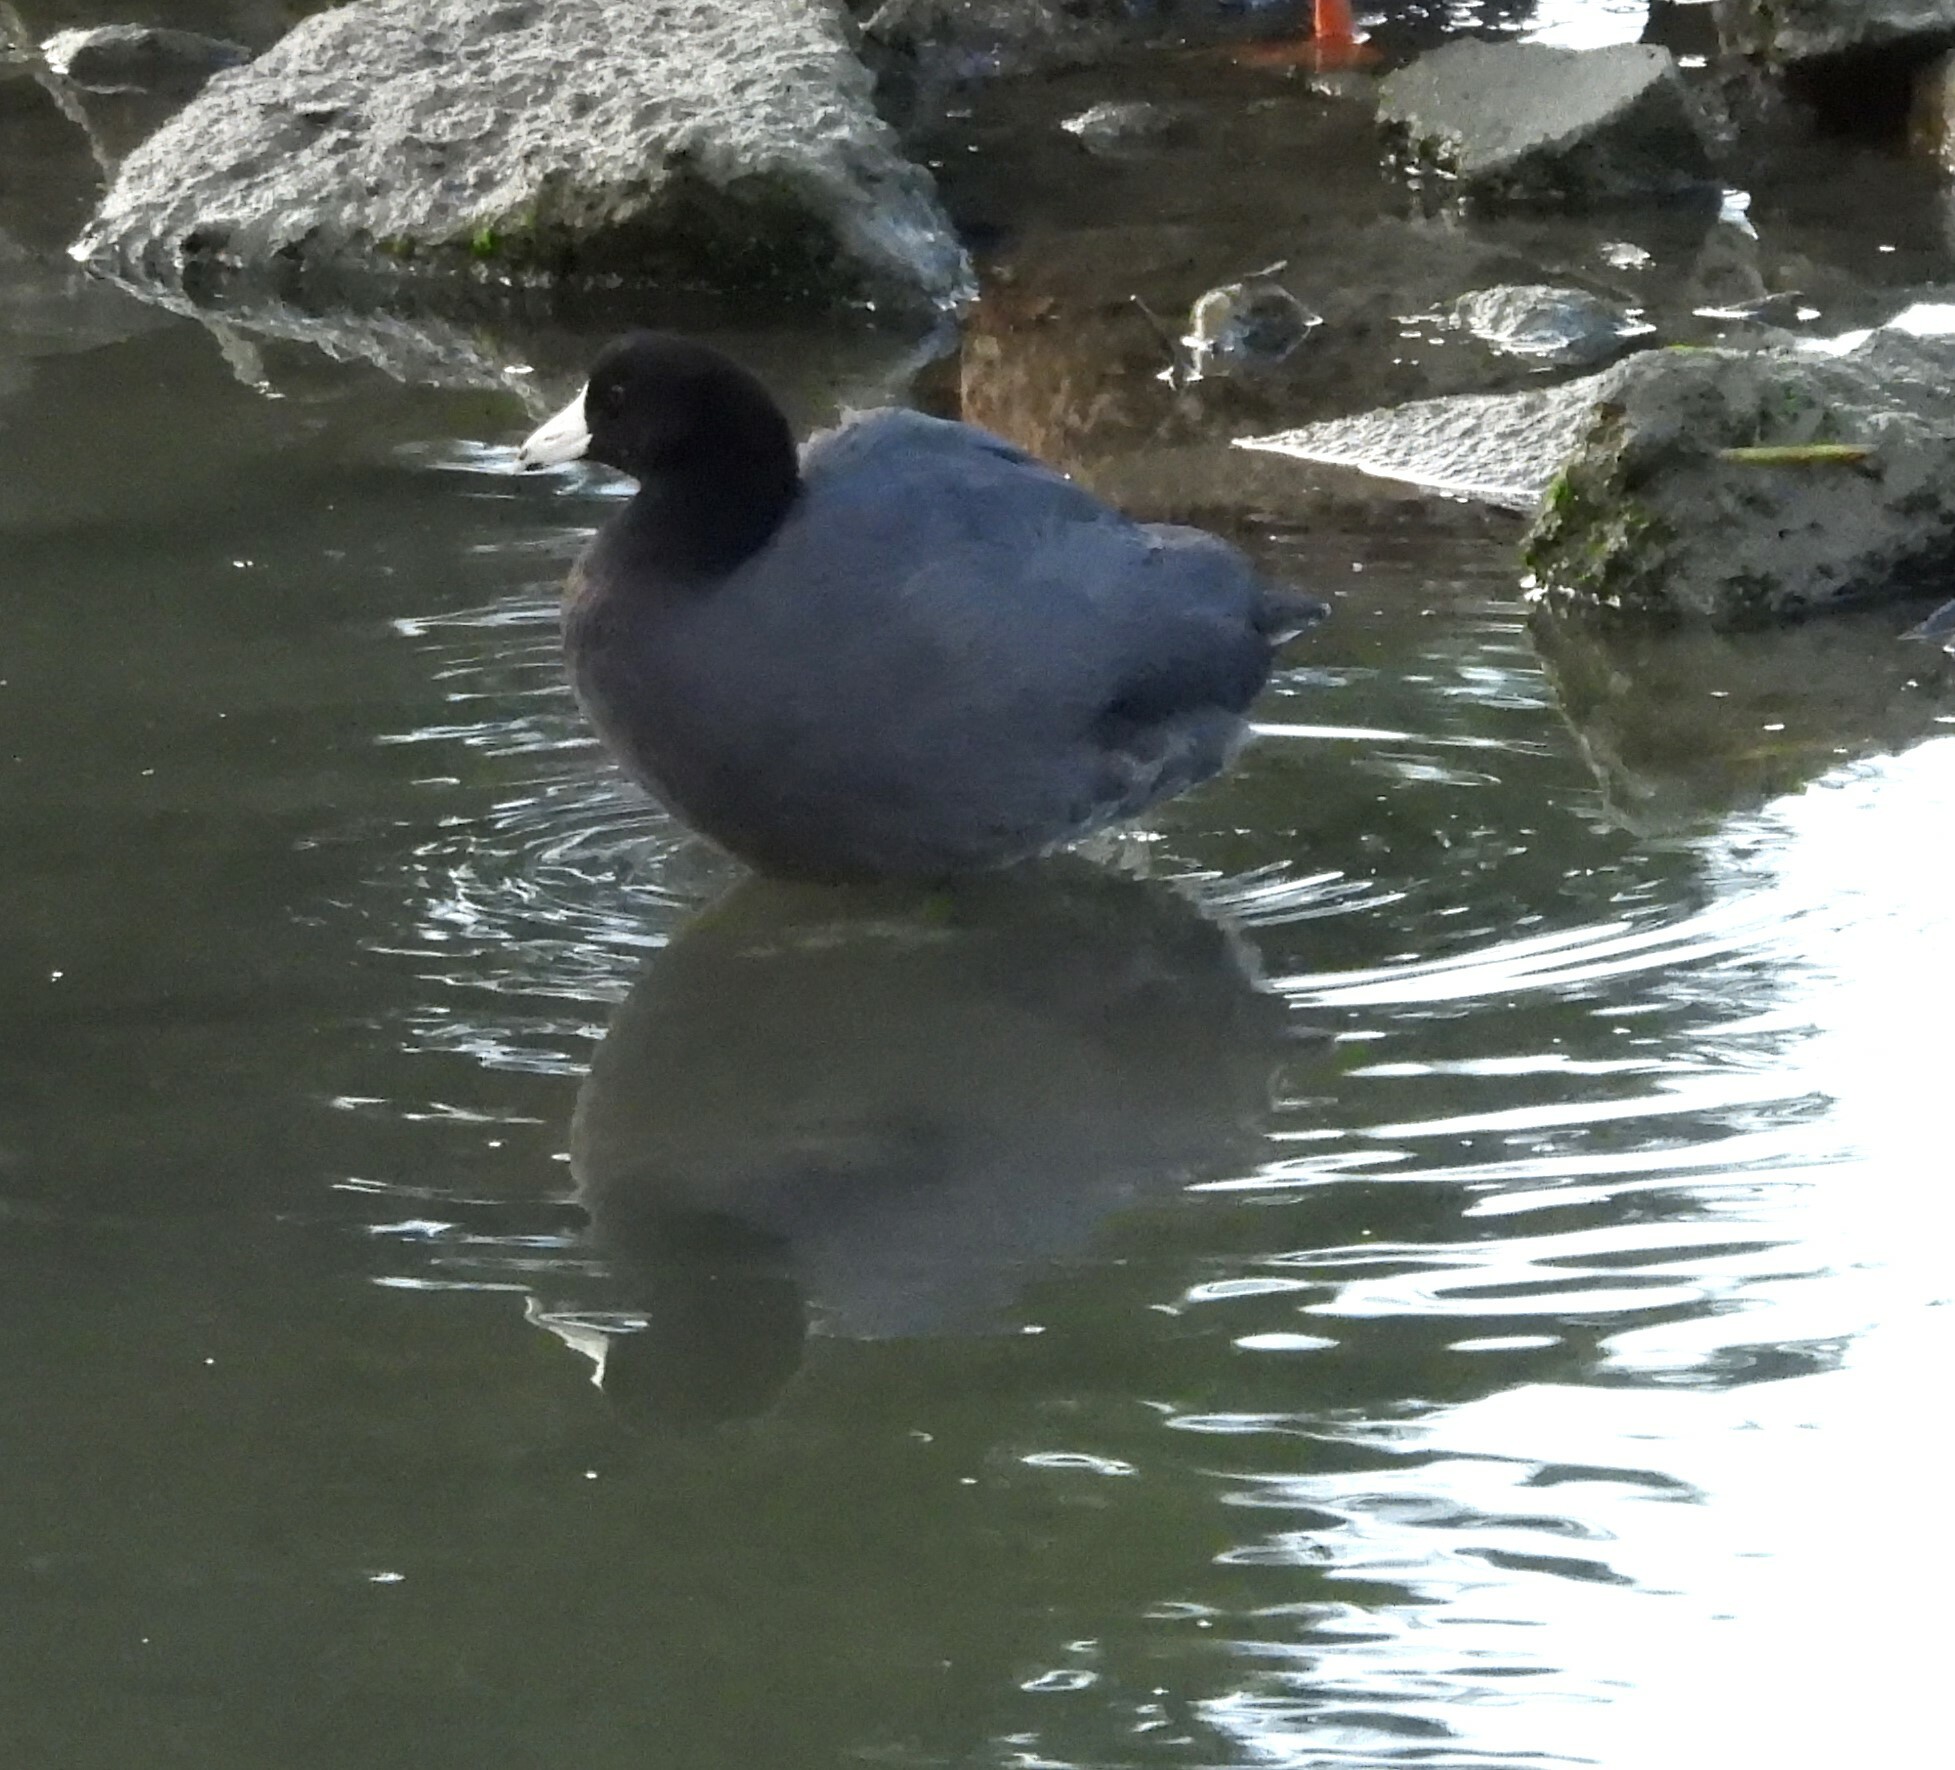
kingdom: Animalia
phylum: Chordata
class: Aves
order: Gruiformes
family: Rallidae
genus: Fulica
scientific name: Fulica americana
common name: American coot
